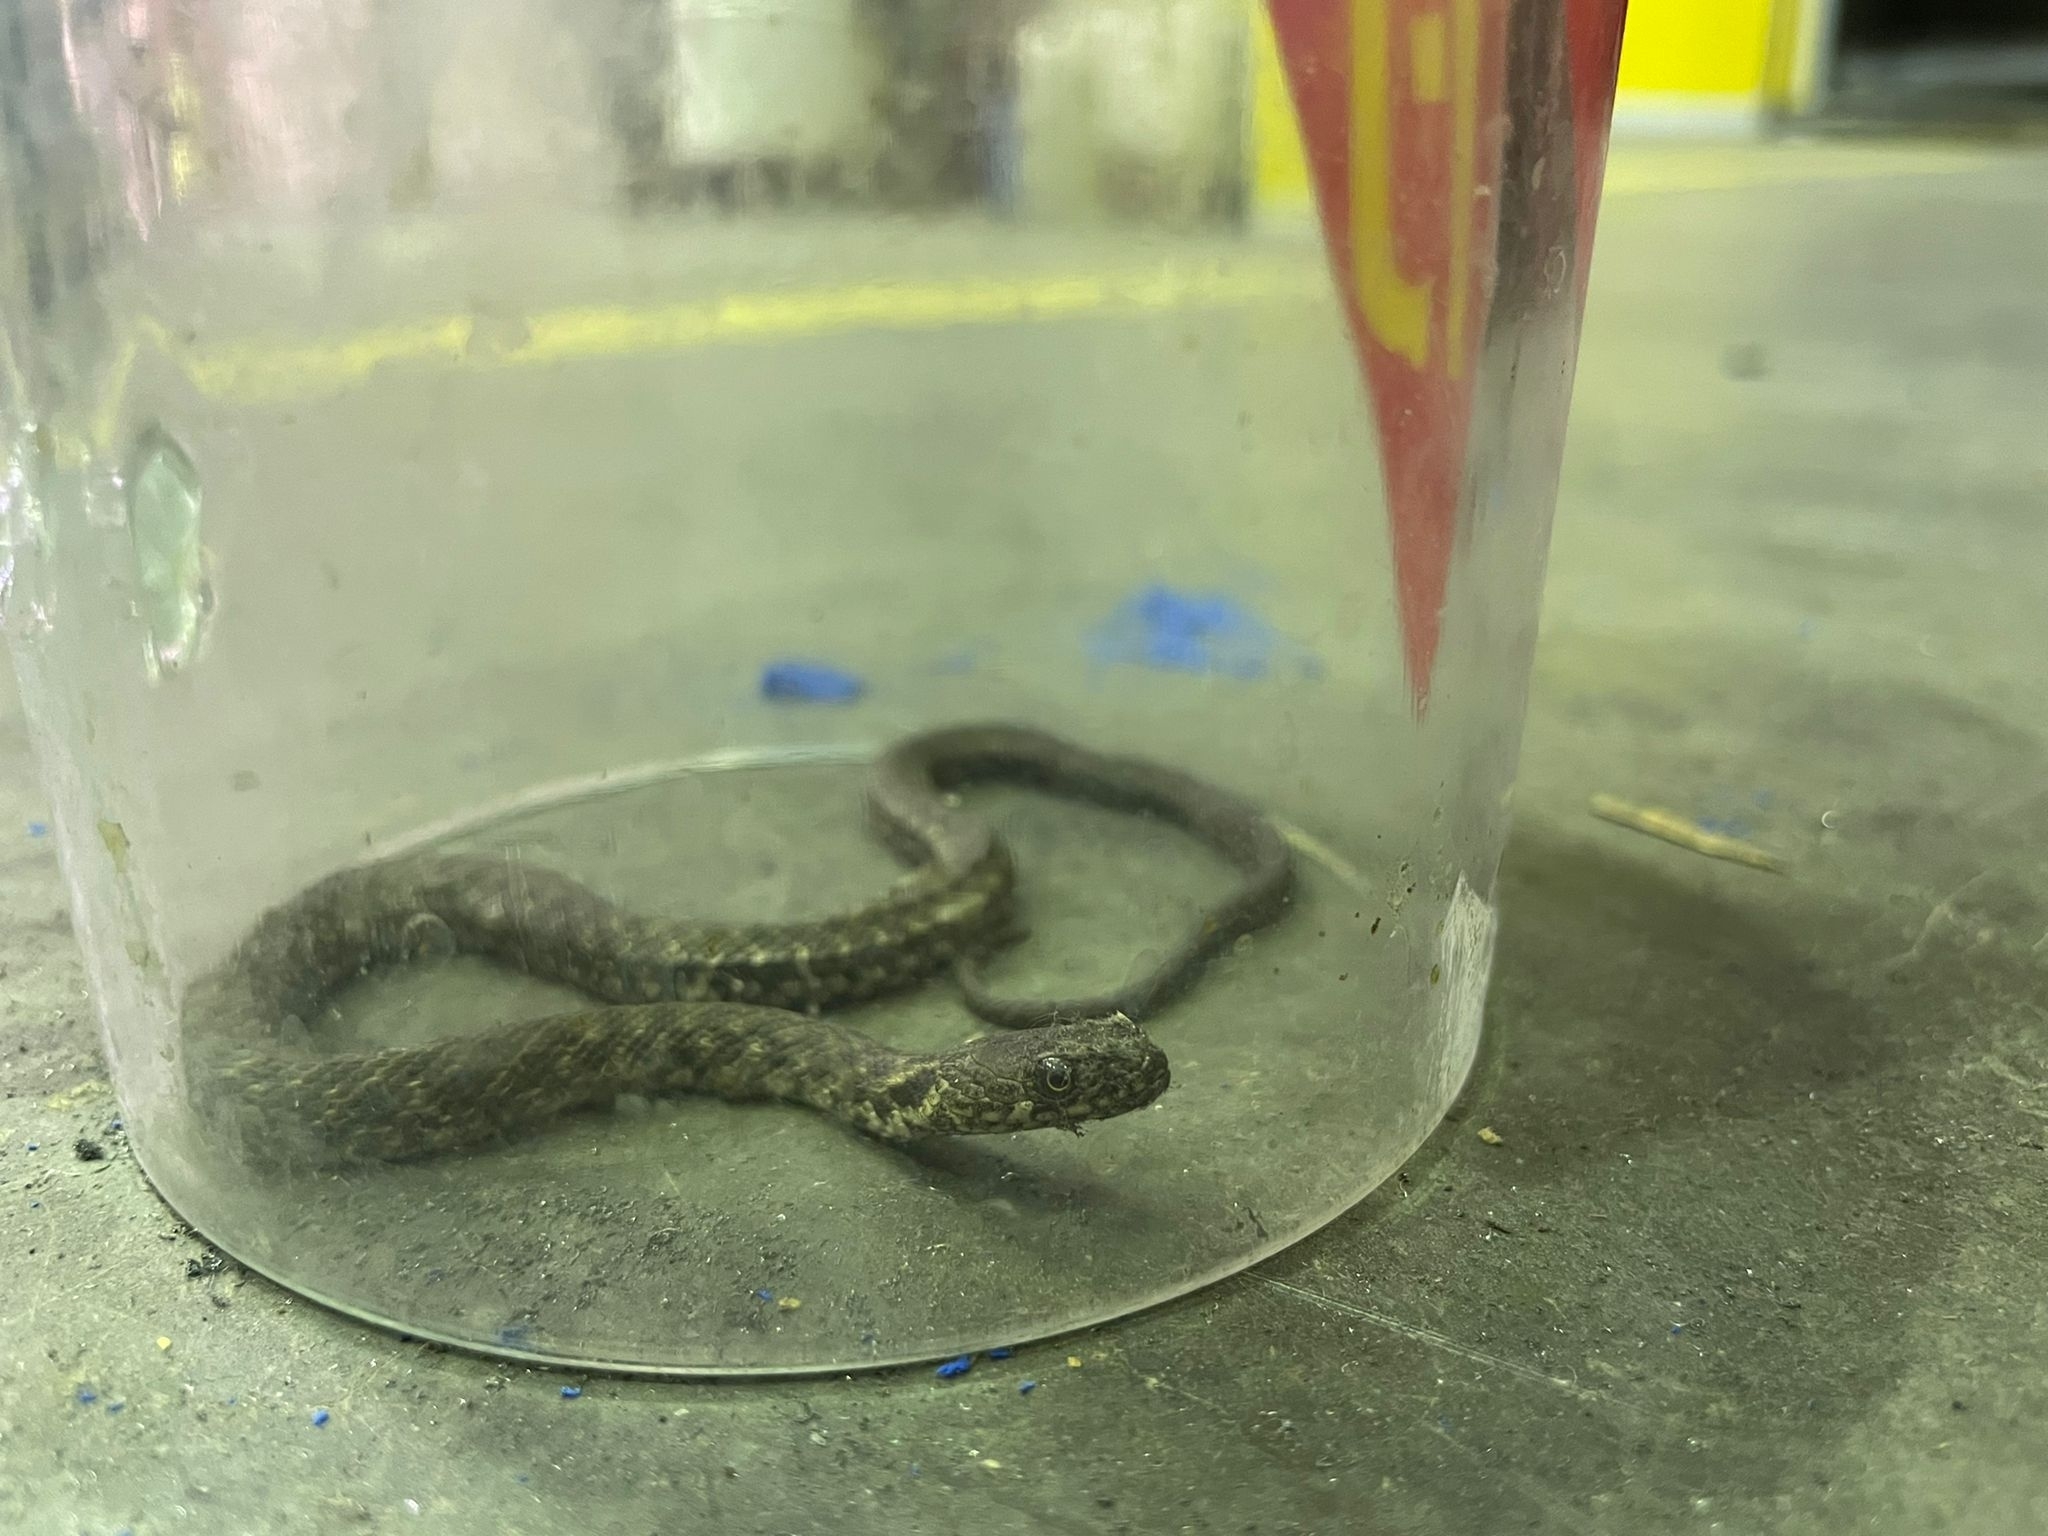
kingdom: Animalia
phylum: Chordata
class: Squamata
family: Colubridae
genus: Natrix
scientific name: Natrix tessellata
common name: Dice snake
